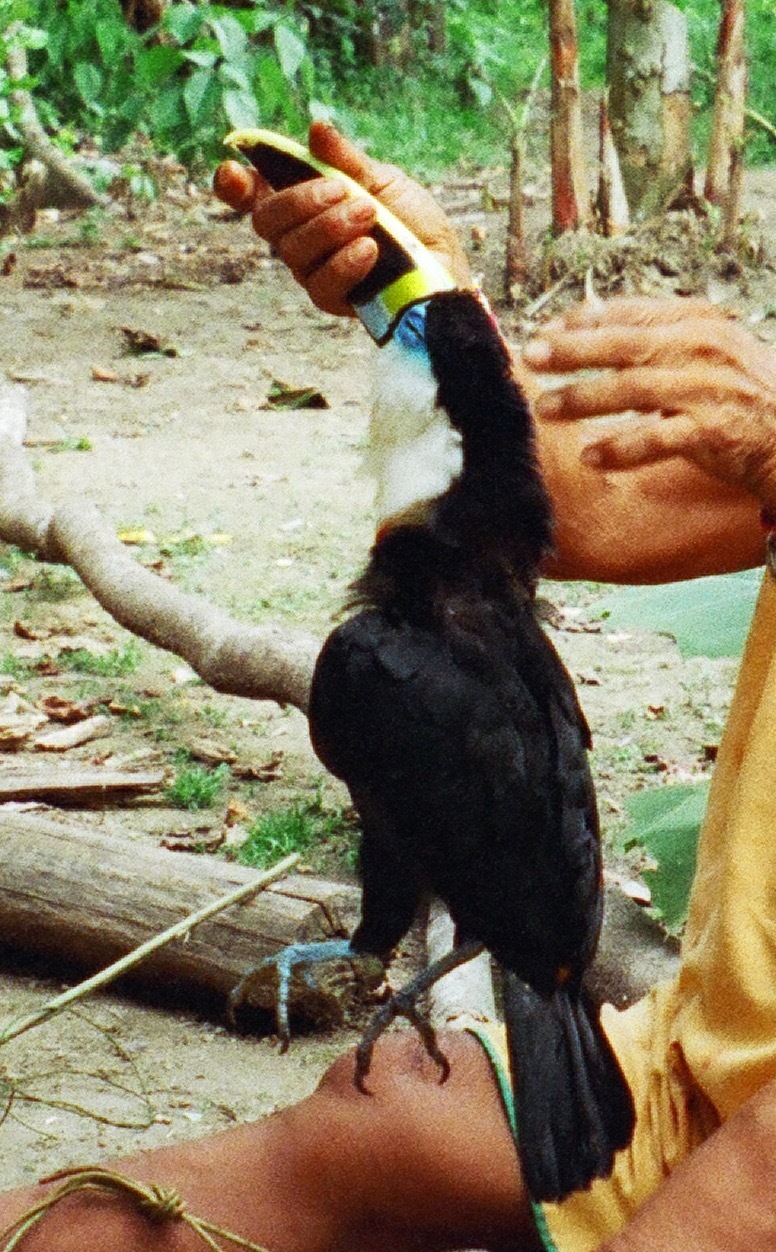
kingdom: Animalia
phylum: Chordata
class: Aves
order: Piciformes
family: Ramphastidae
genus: Ramphastos
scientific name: Ramphastos tucanus
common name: White-throated toucan
